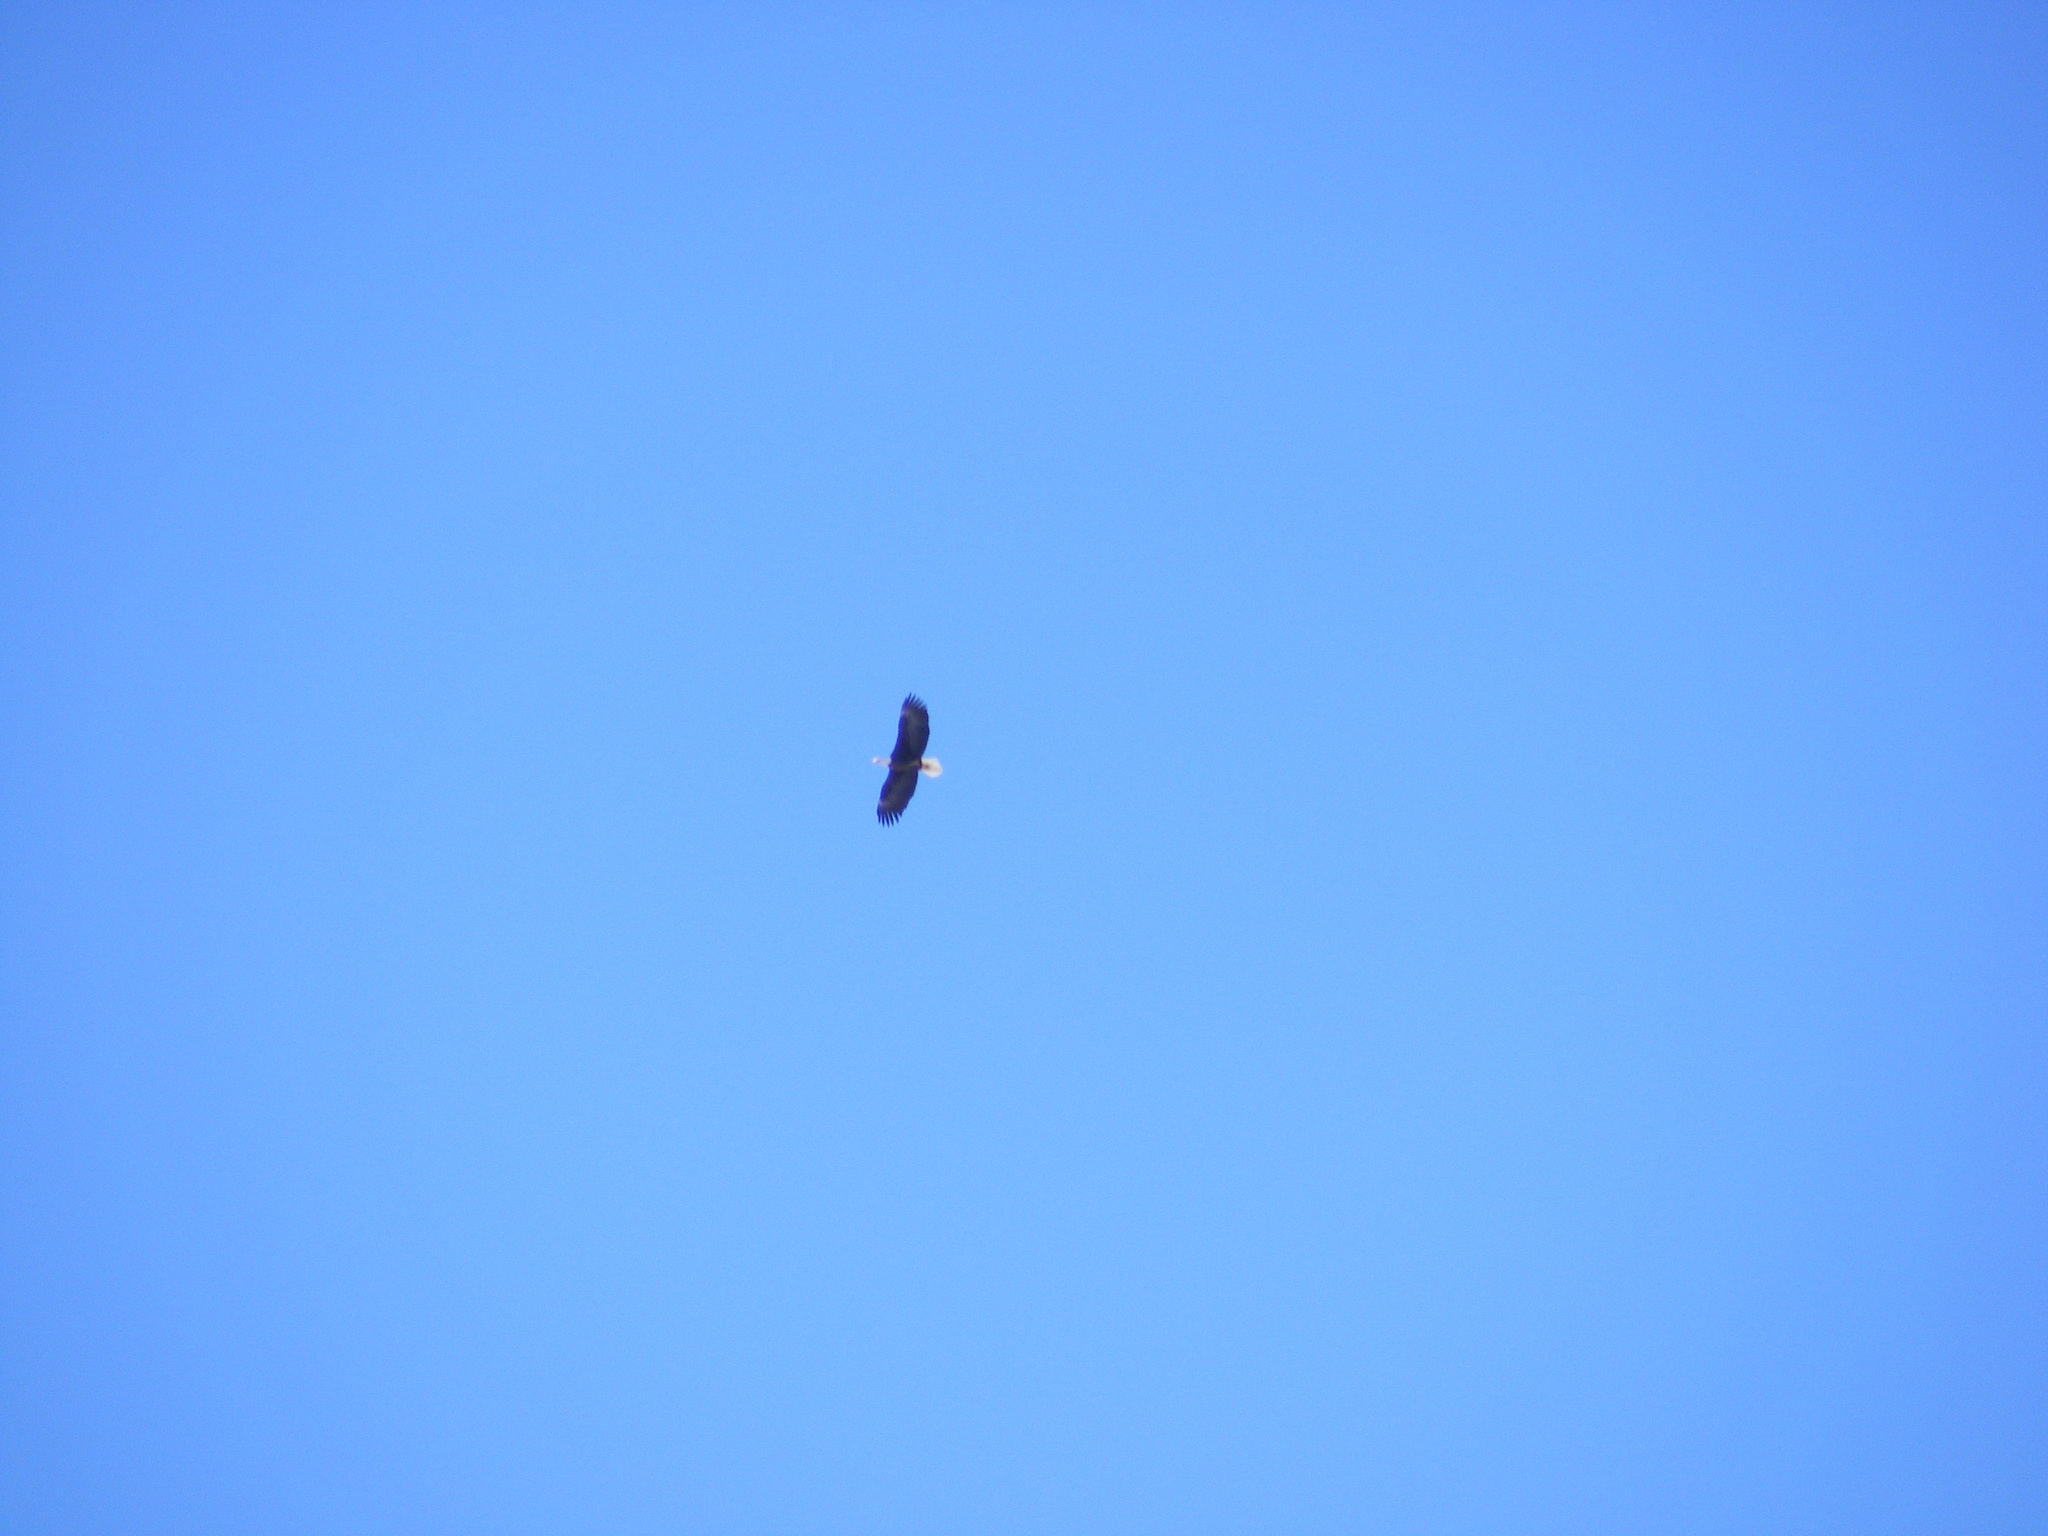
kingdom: Animalia
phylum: Chordata
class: Aves
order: Accipitriformes
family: Accipitridae
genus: Haliaeetus
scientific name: Haliaeetus leucocephalus
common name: Bald eagle
